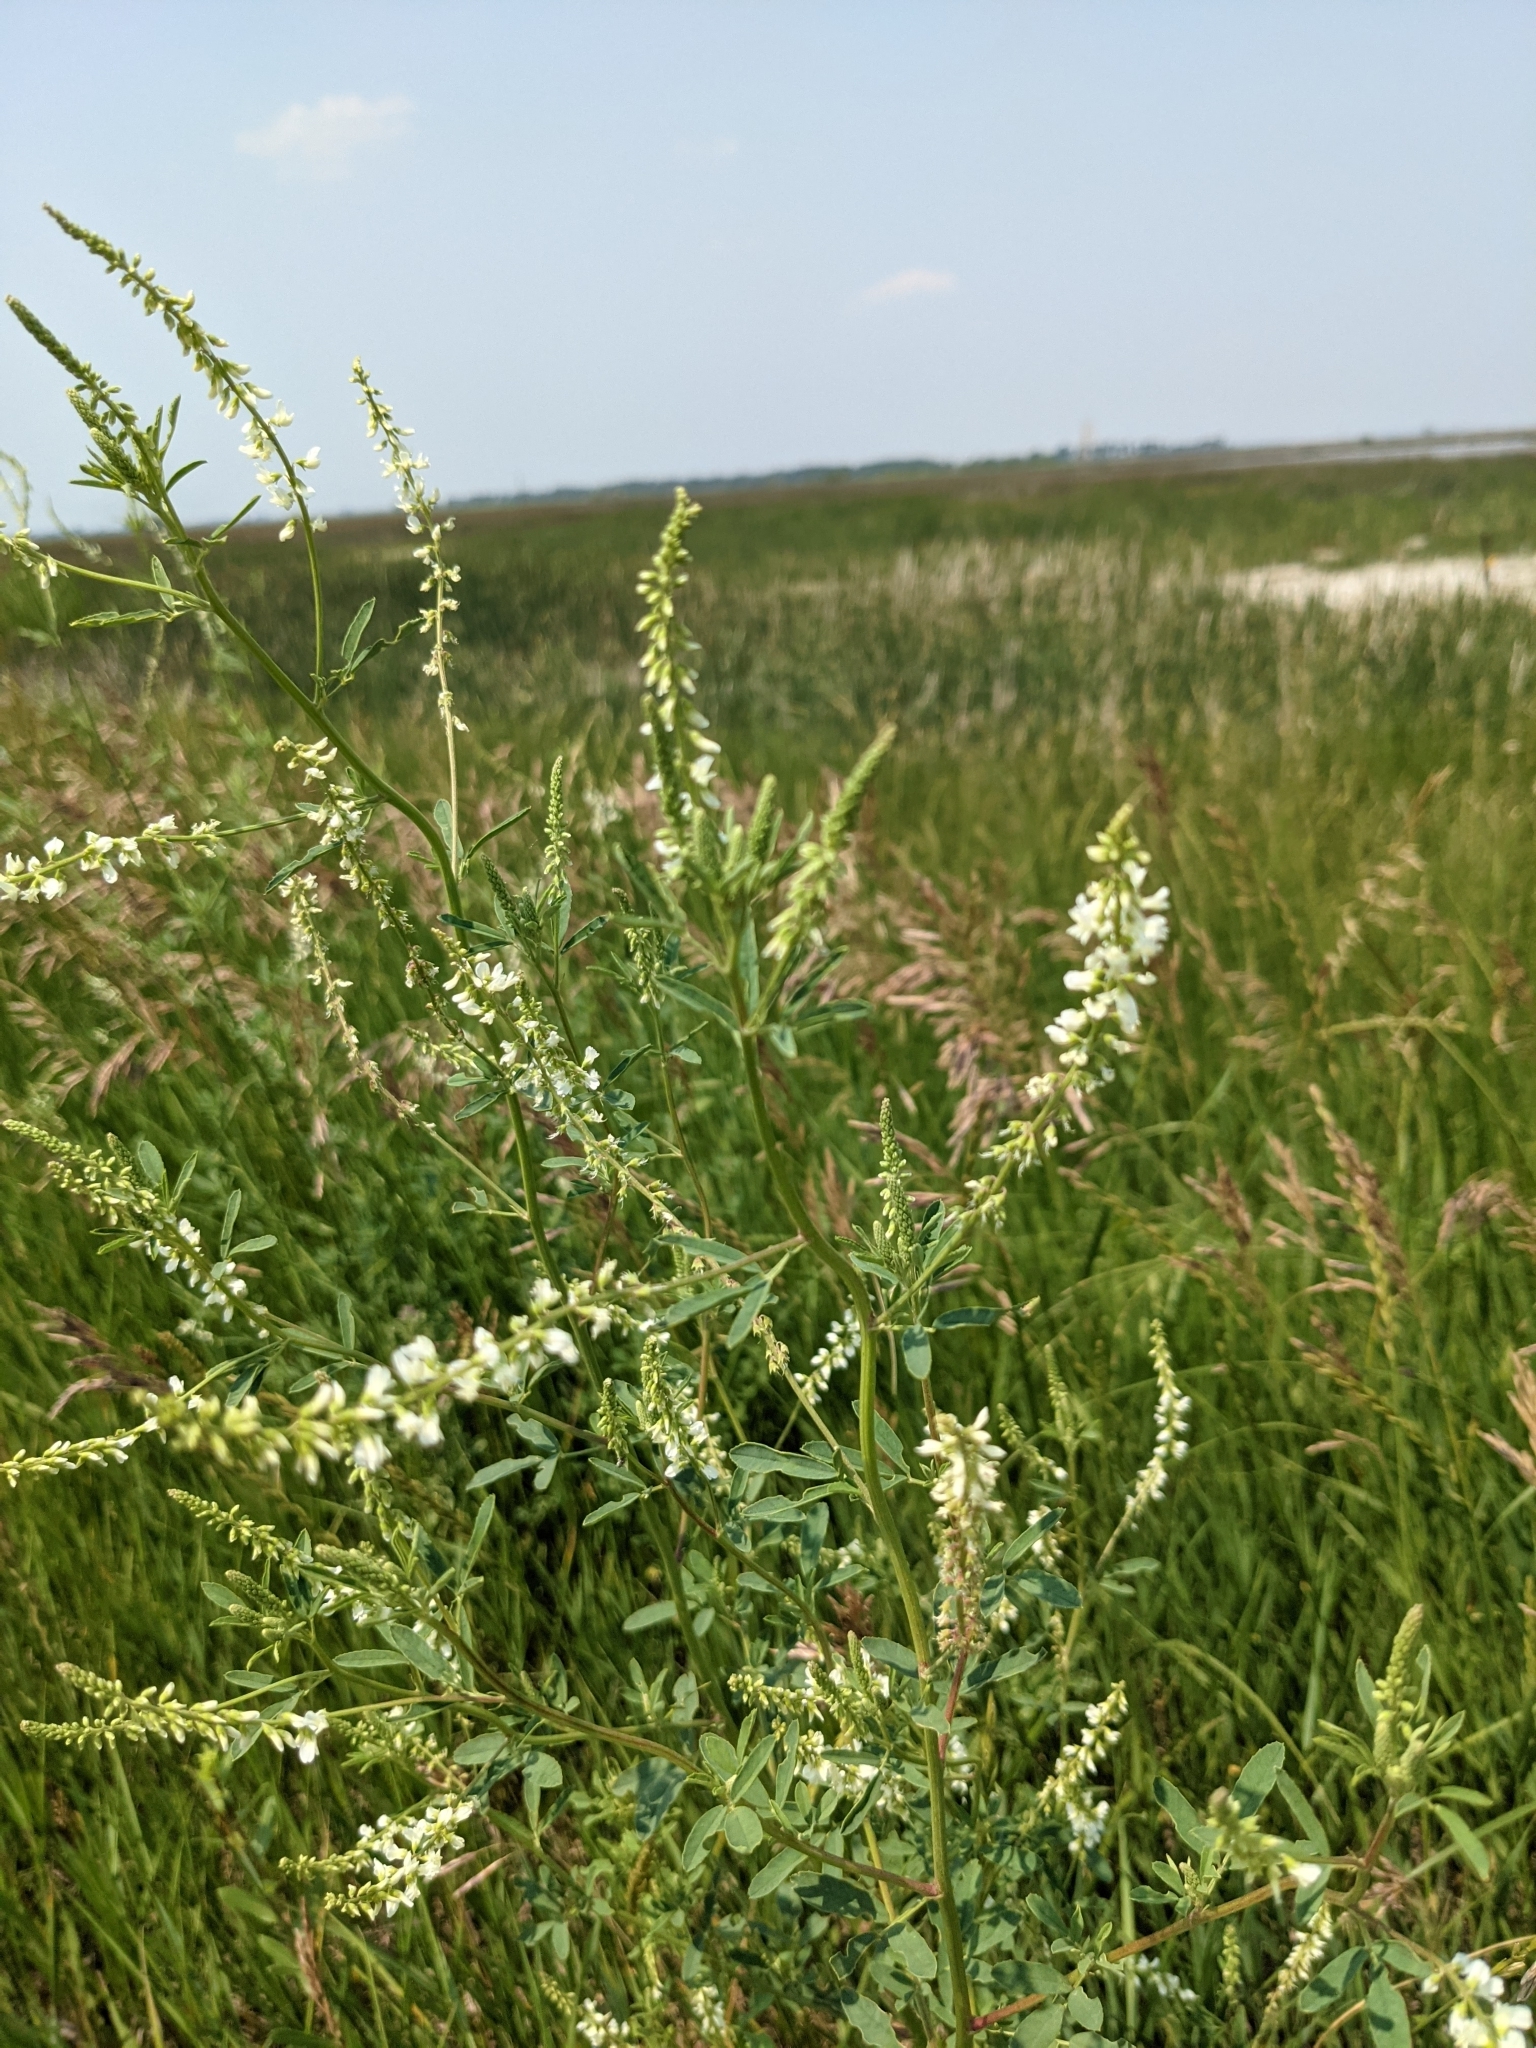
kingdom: Plantae
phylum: Tracheophyta
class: Magnoliopsida
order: Fabales
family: Fabaceae
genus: Melilotus
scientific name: Melilotus albus
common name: White melilot
